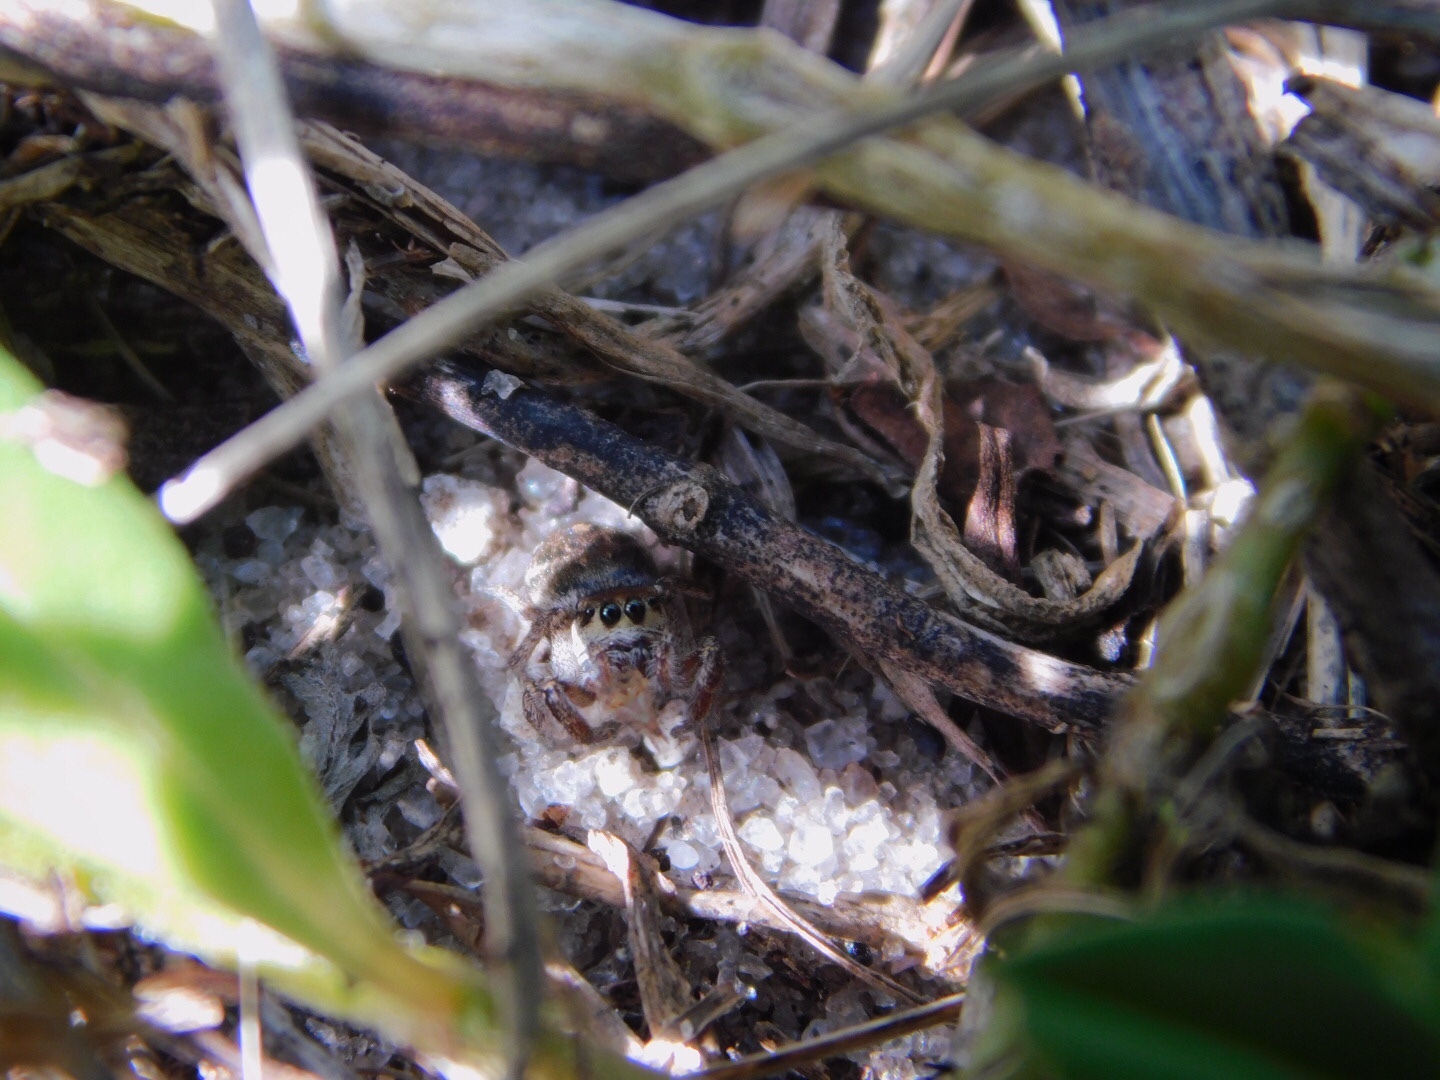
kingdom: Animalia
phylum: Arthropoda
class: Arachnida
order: Araneae
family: Salticidae
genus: Habronattus
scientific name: Habronattus brunneus
